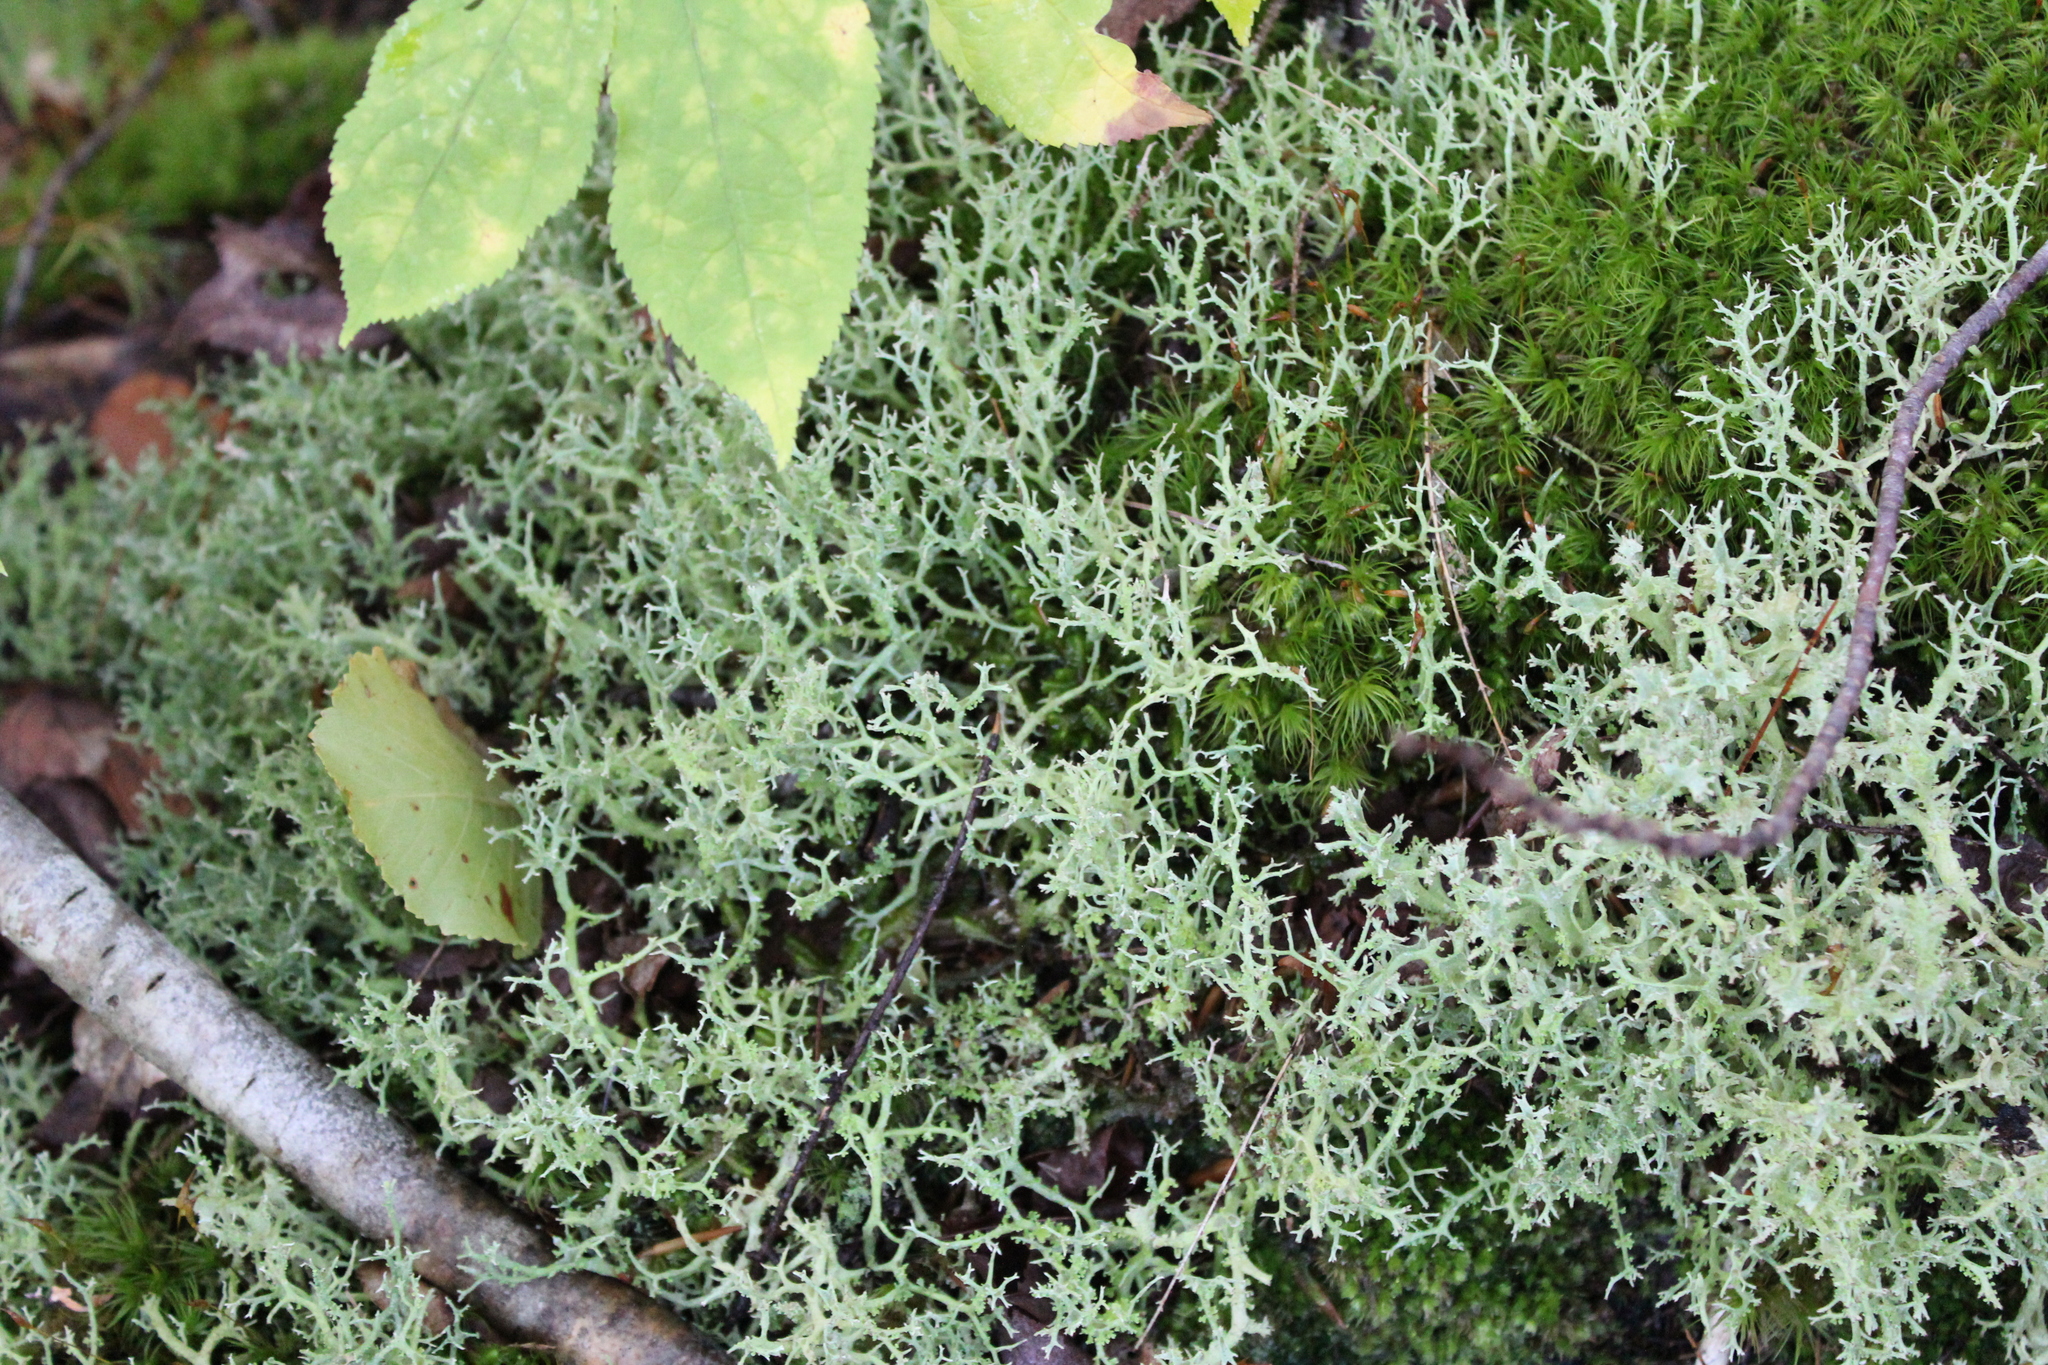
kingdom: Fungi
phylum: Ascomycota
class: Lecanoromycetes
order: Lecanorales
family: Cladoniaceae
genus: Cladonia
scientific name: Cladonia furcata
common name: Many-forked cladonia
